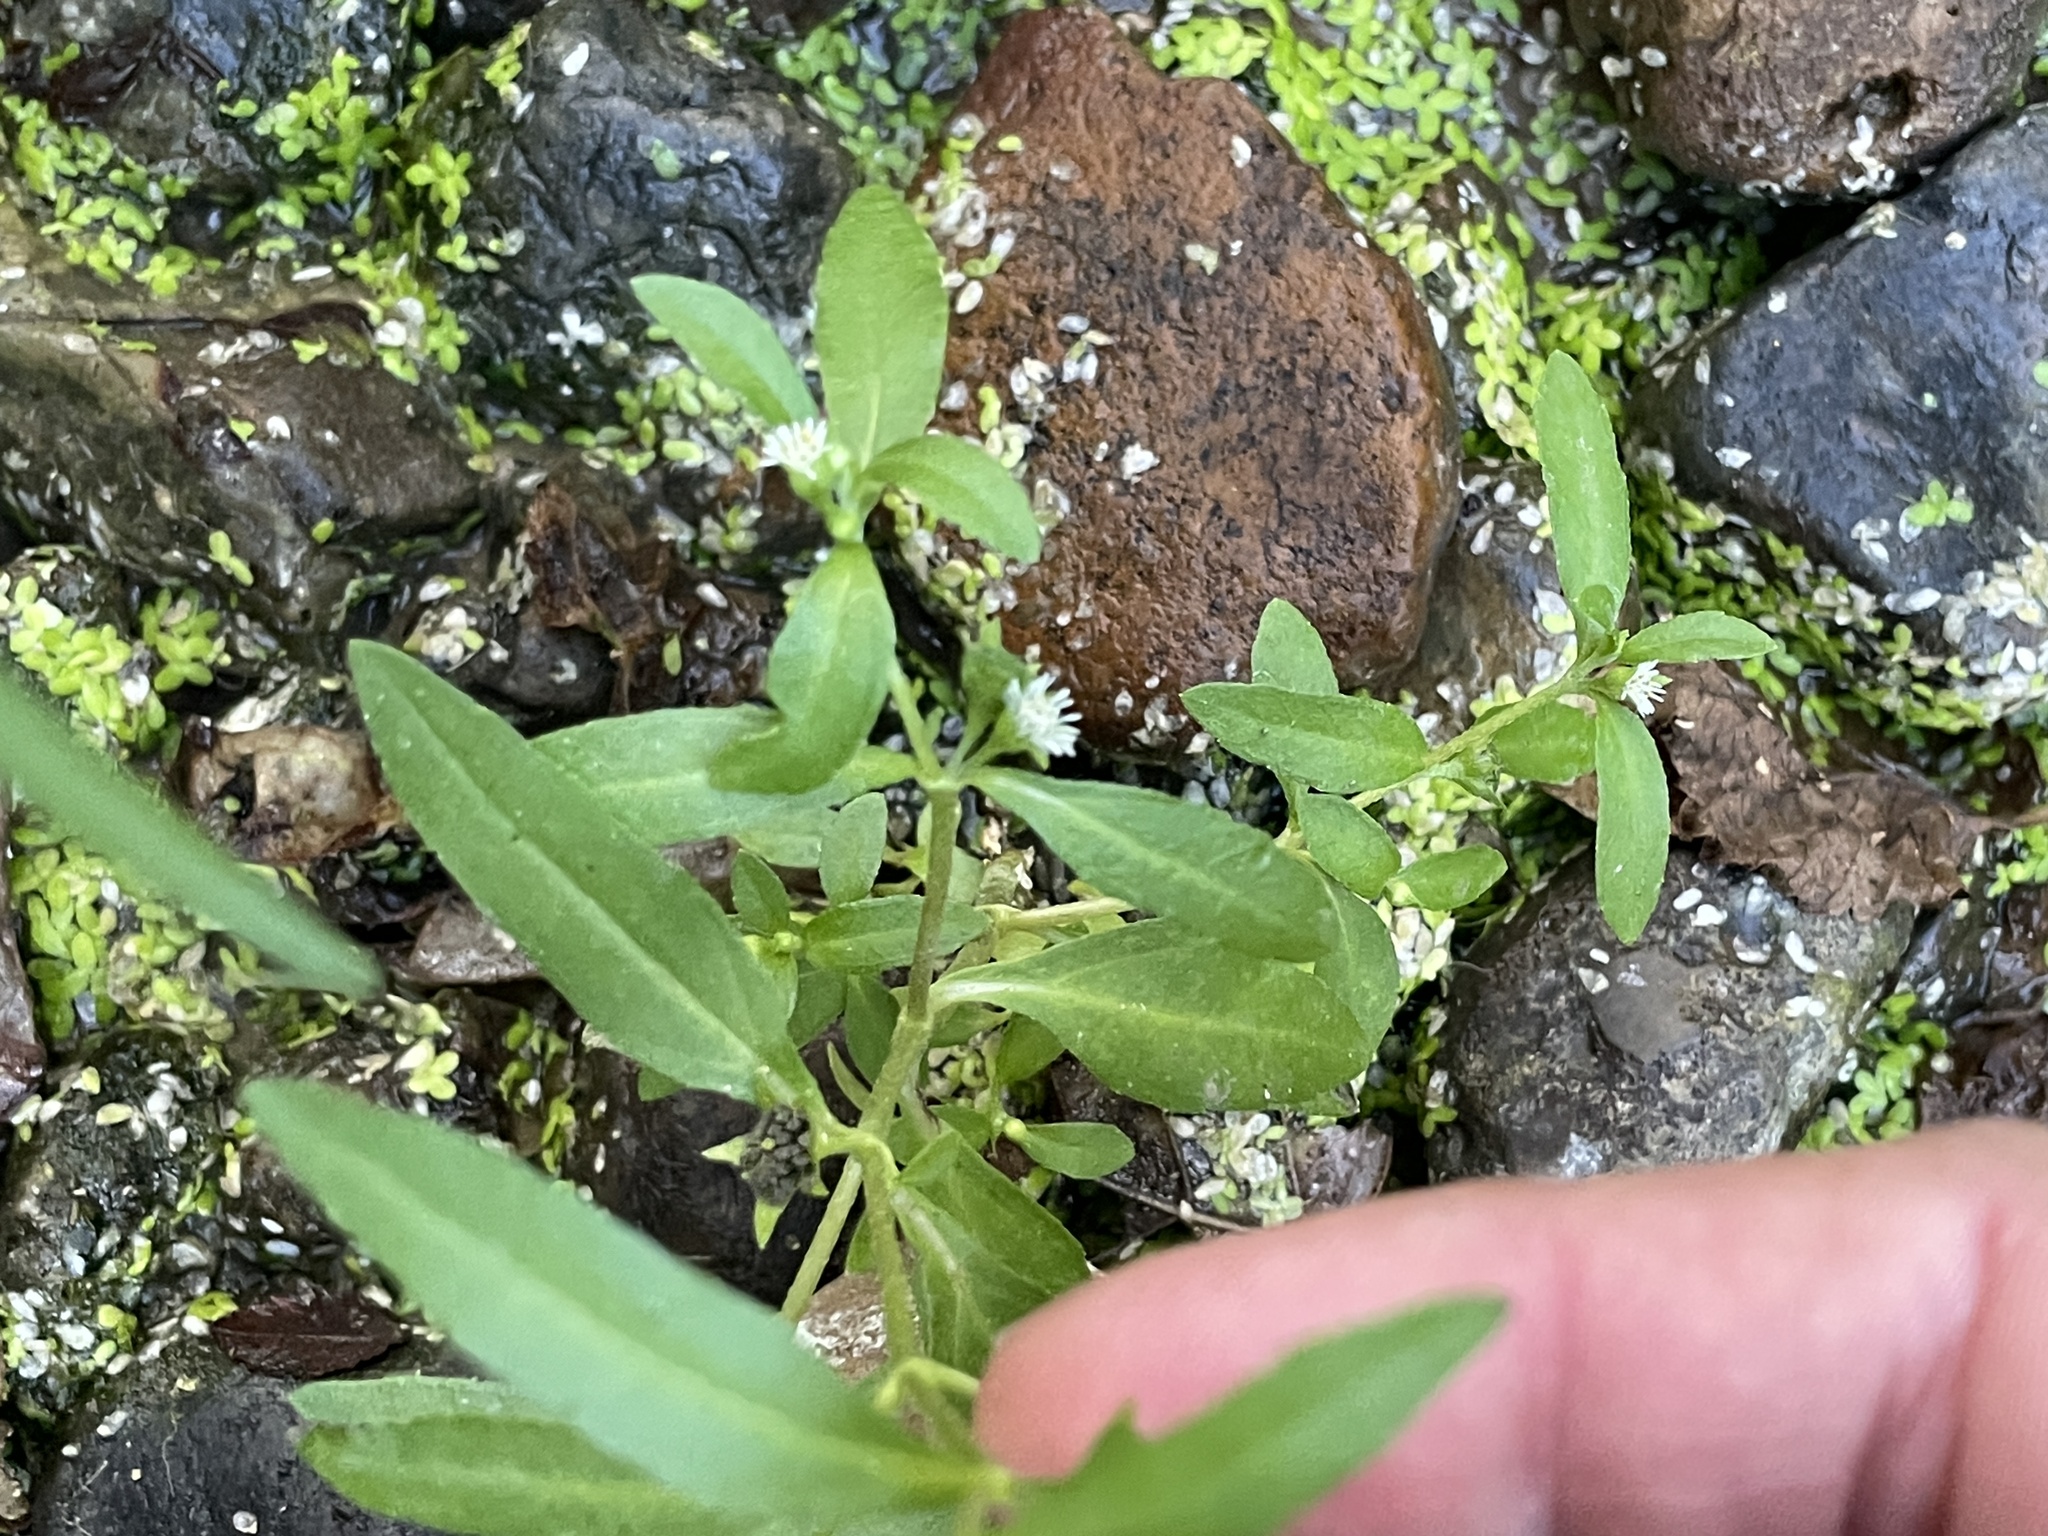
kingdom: Plantae
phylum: Tracheophyta
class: Magnoliopsida
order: Asterales
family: Asteraceae
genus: Eclipta
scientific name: Eclipta prostrata
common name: False daisy
